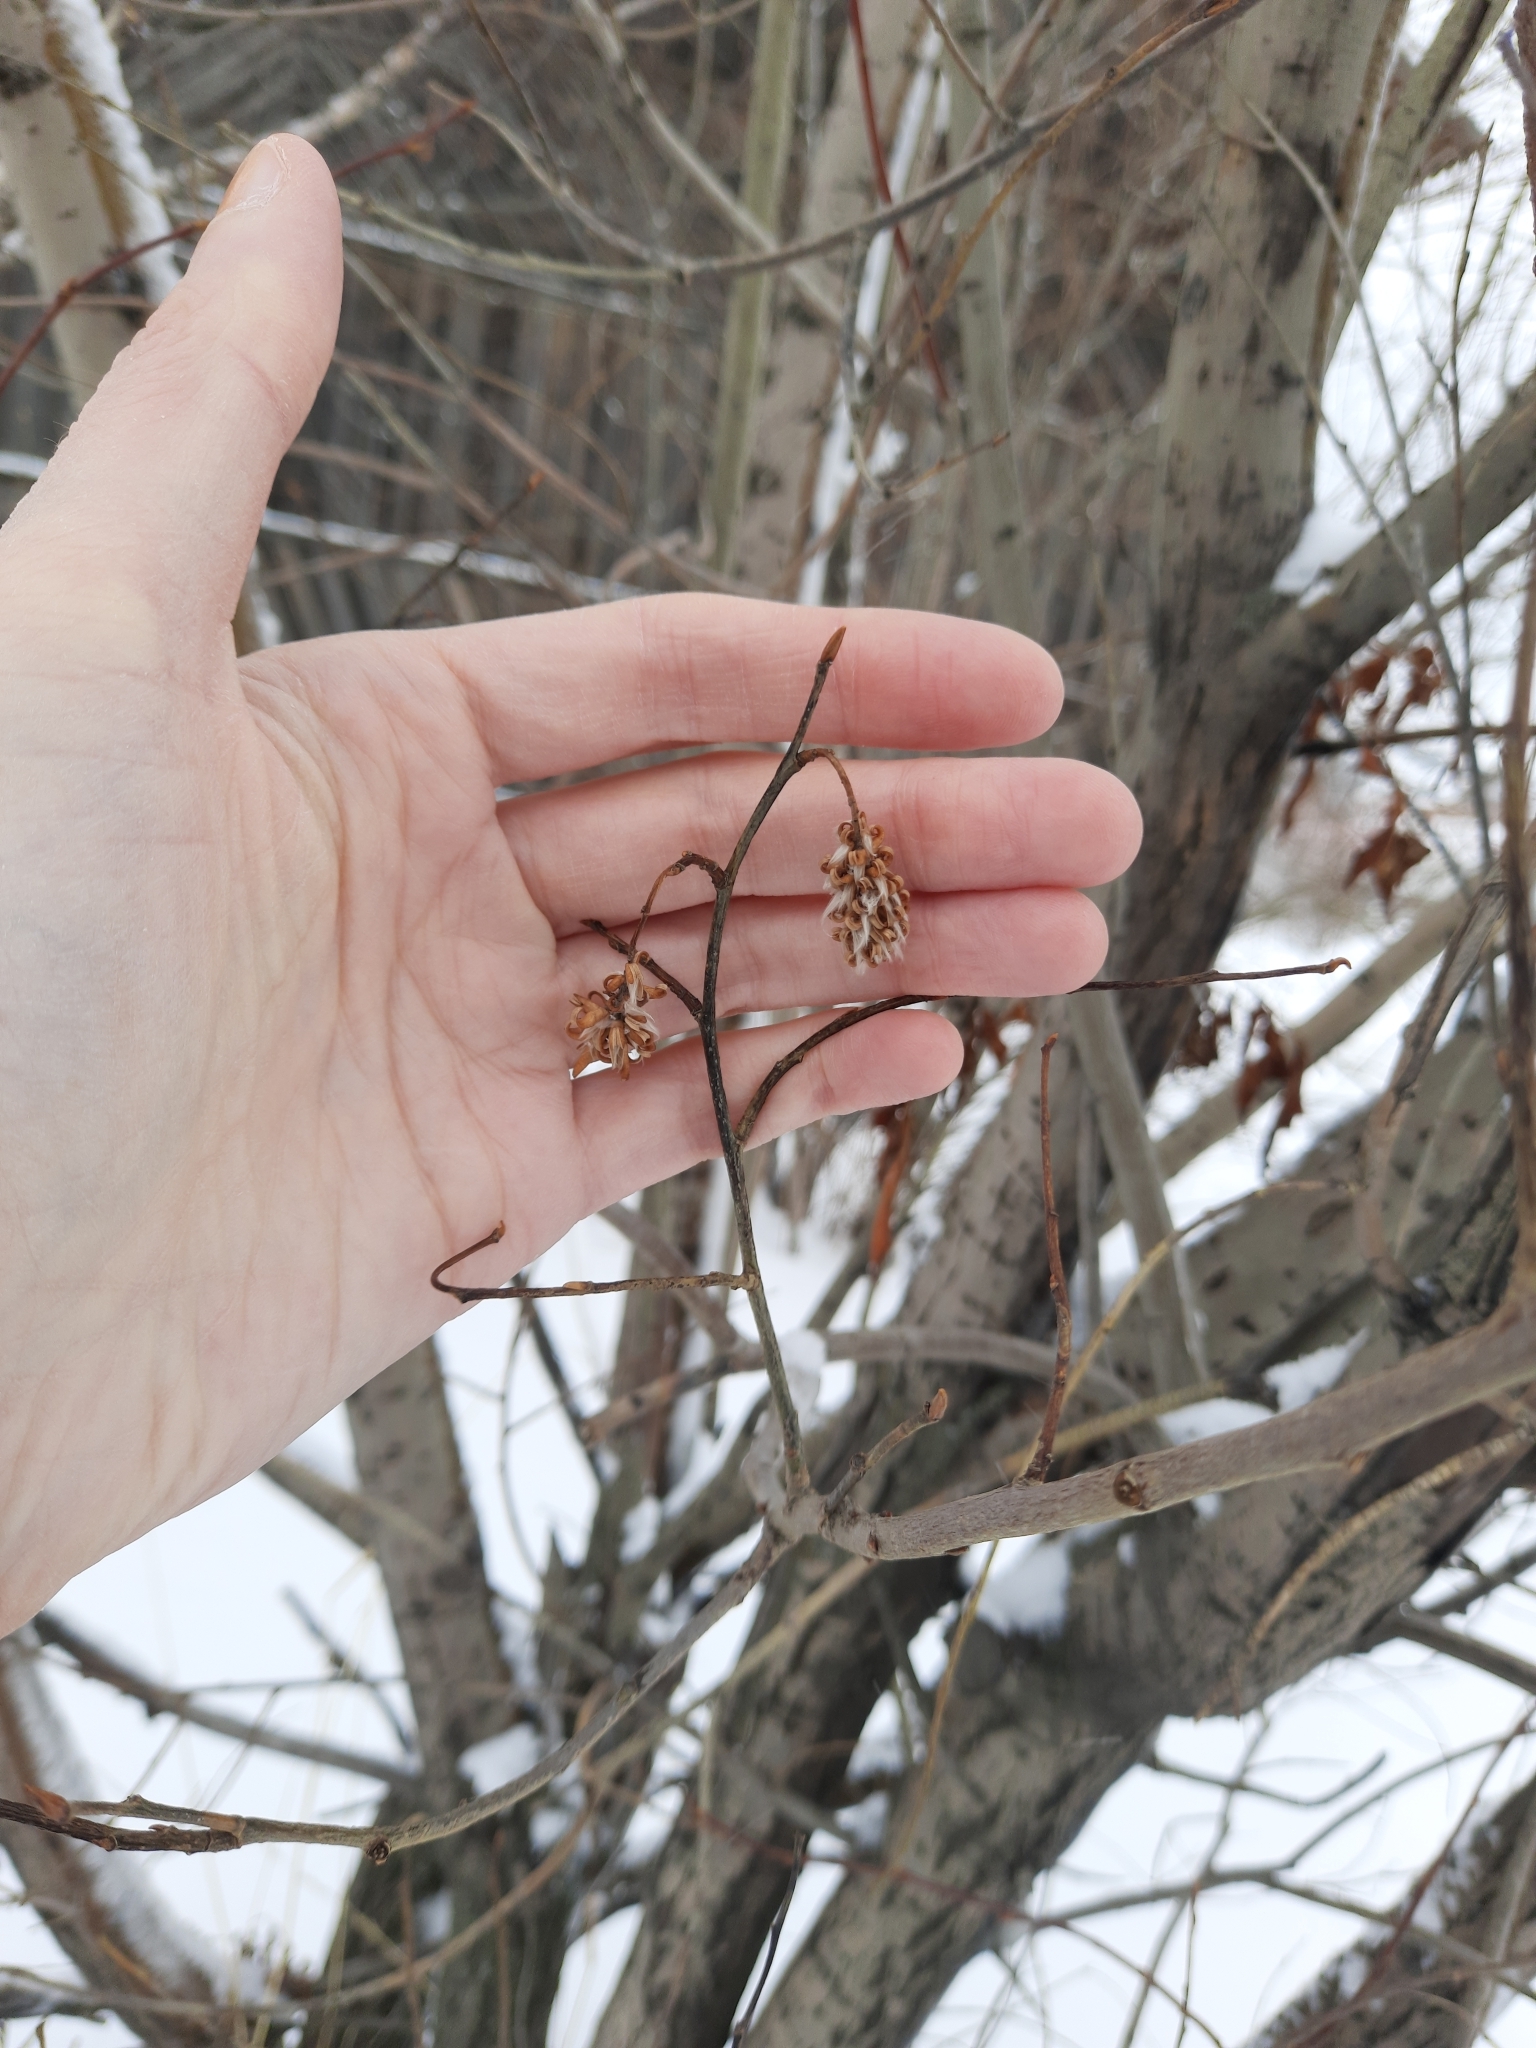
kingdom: Plantae
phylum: Tracheophyta
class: Magnoliopsida
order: Malpighiales
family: Salicaceae
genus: Salix
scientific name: Salix pentandra
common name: Bay willow
